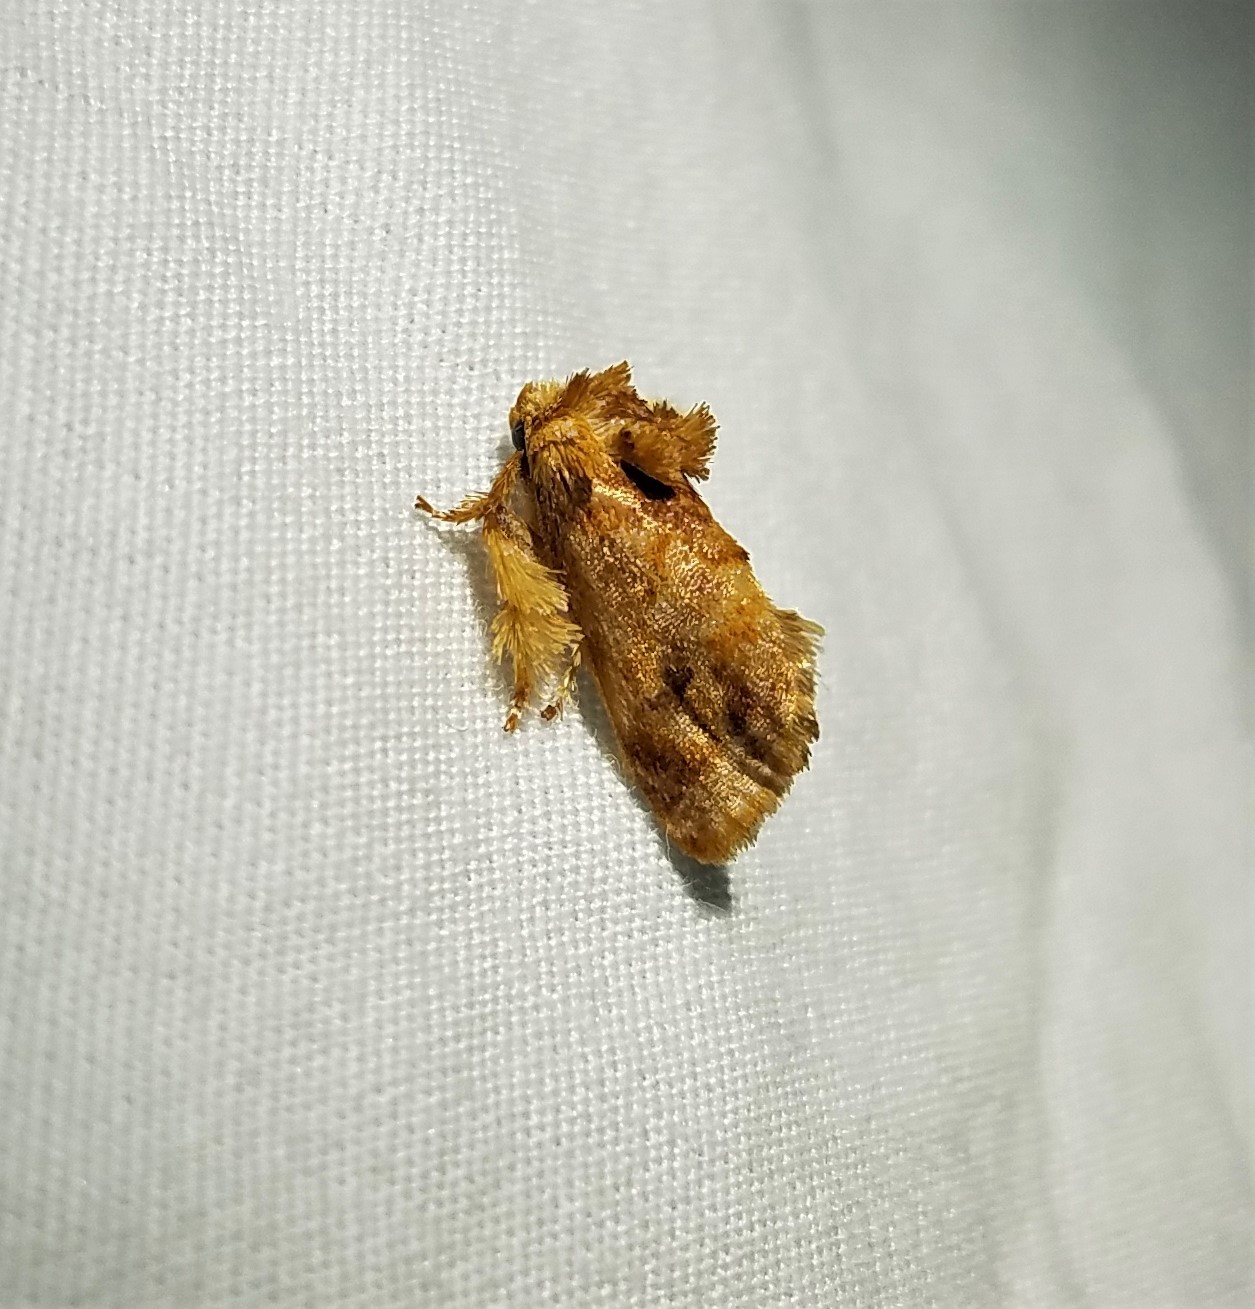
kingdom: Animalia
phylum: Arthropoda
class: Insecta
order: Lepidoptera
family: Limacodidae
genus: Isochaetes
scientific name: Isochaetes beutenmuelleri
